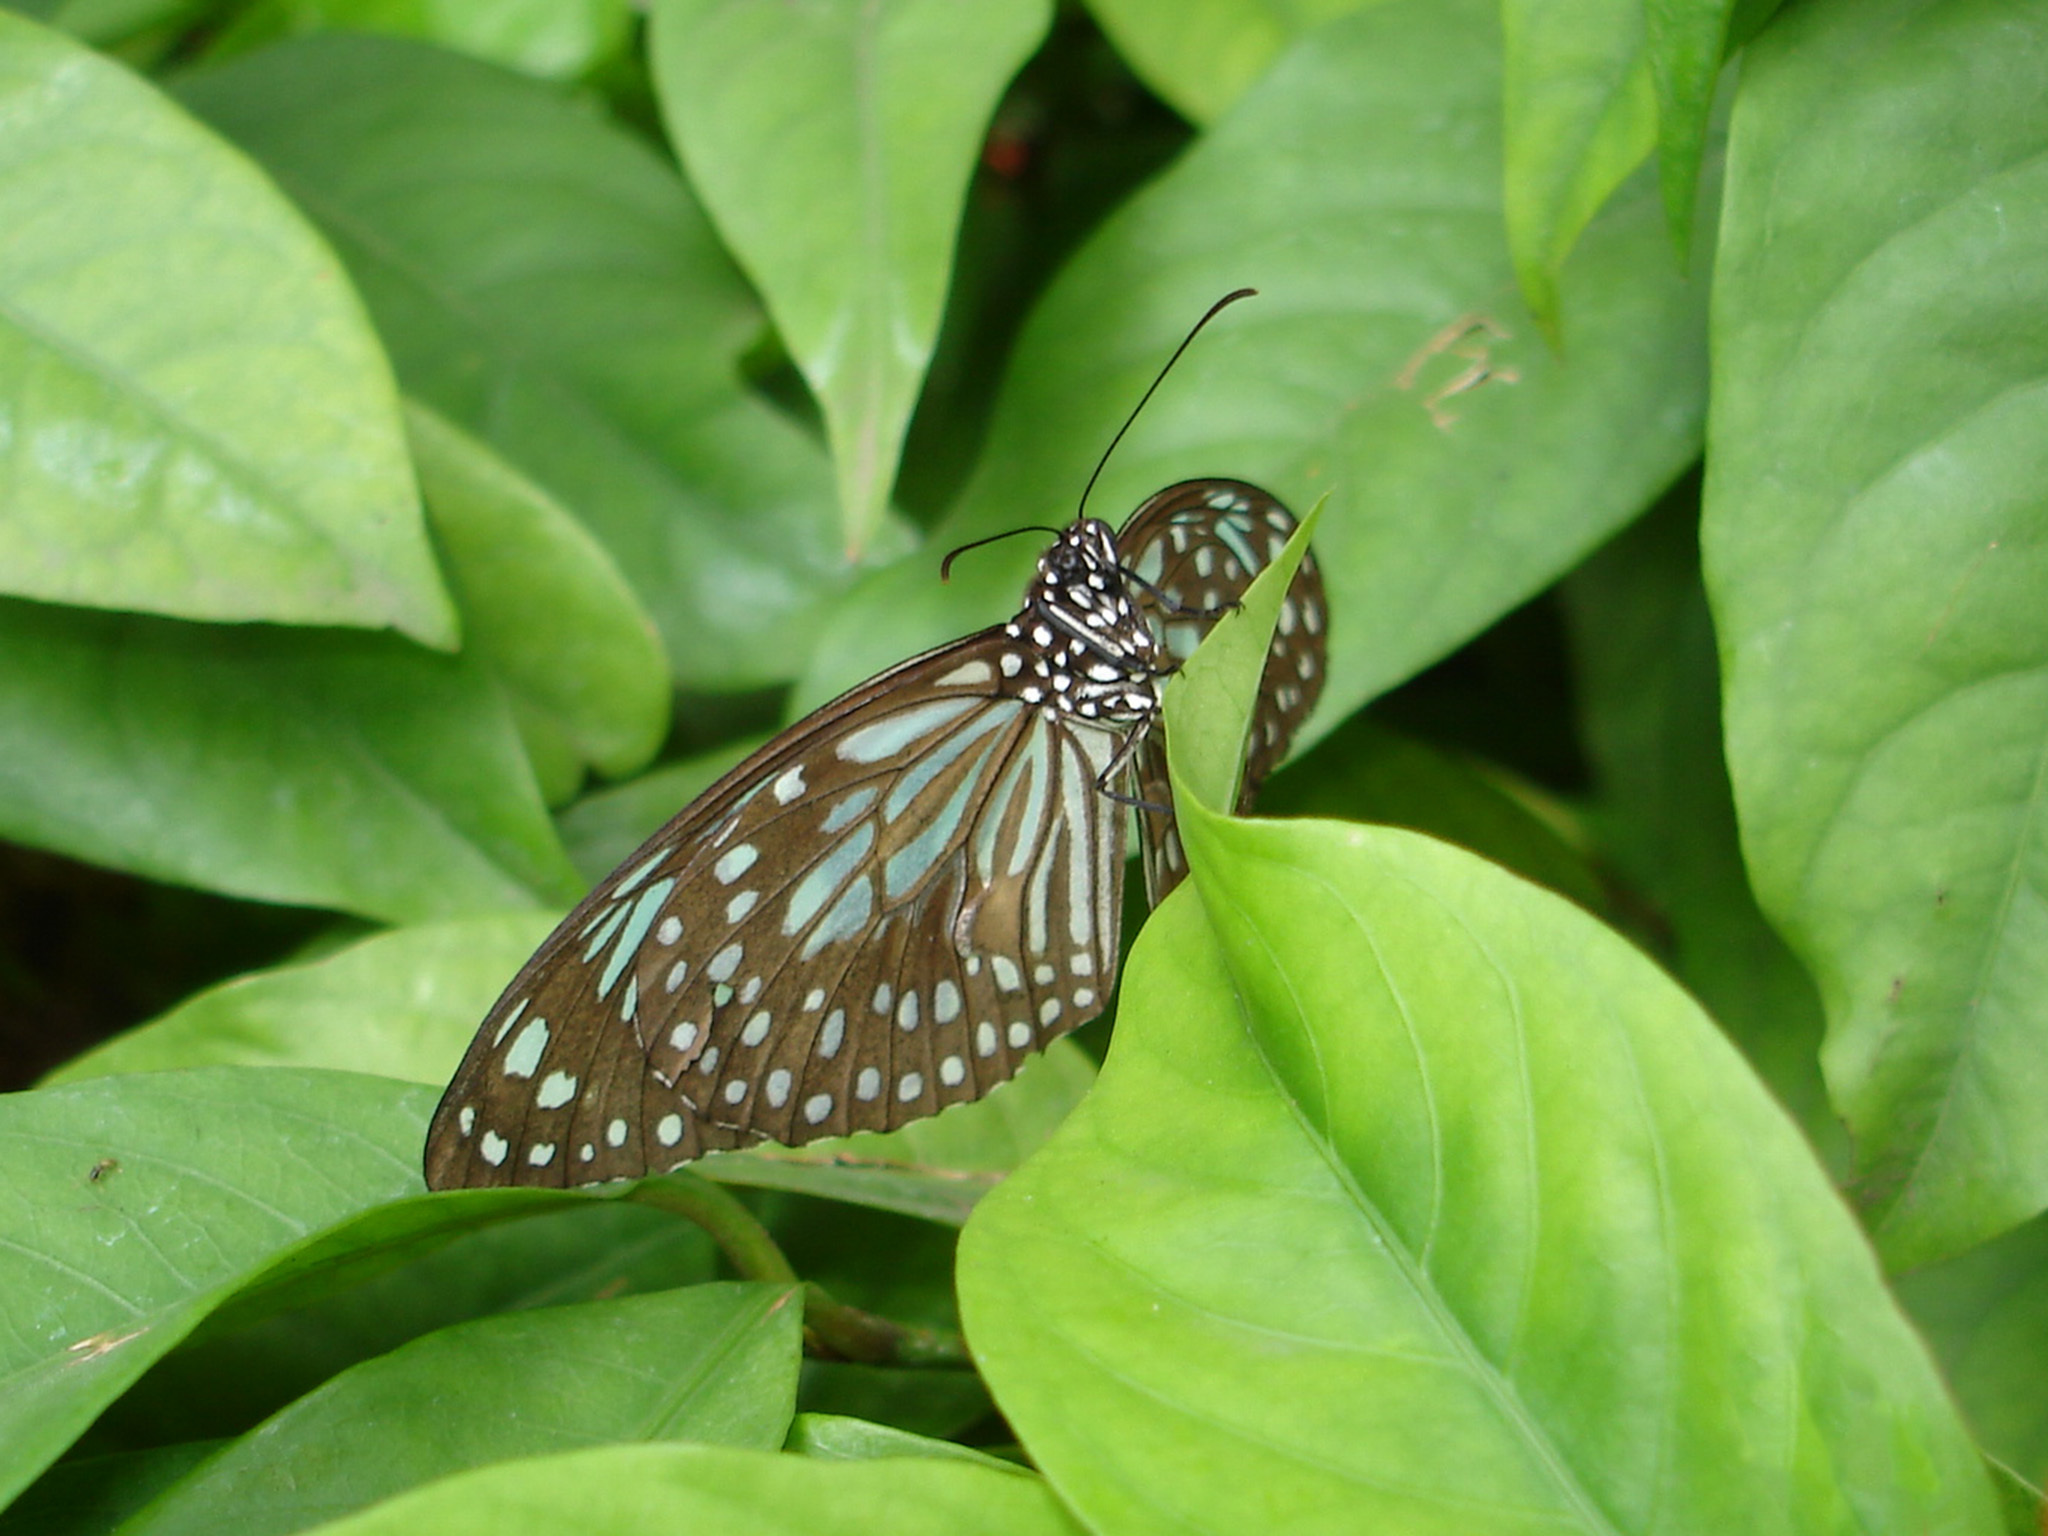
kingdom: Animalia
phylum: Arthropoda
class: Insecta
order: Lepidoptera
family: Nymphalidae
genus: Tirumala
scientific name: Tirumala septentrionis
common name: Dark blue tiger butterfly
